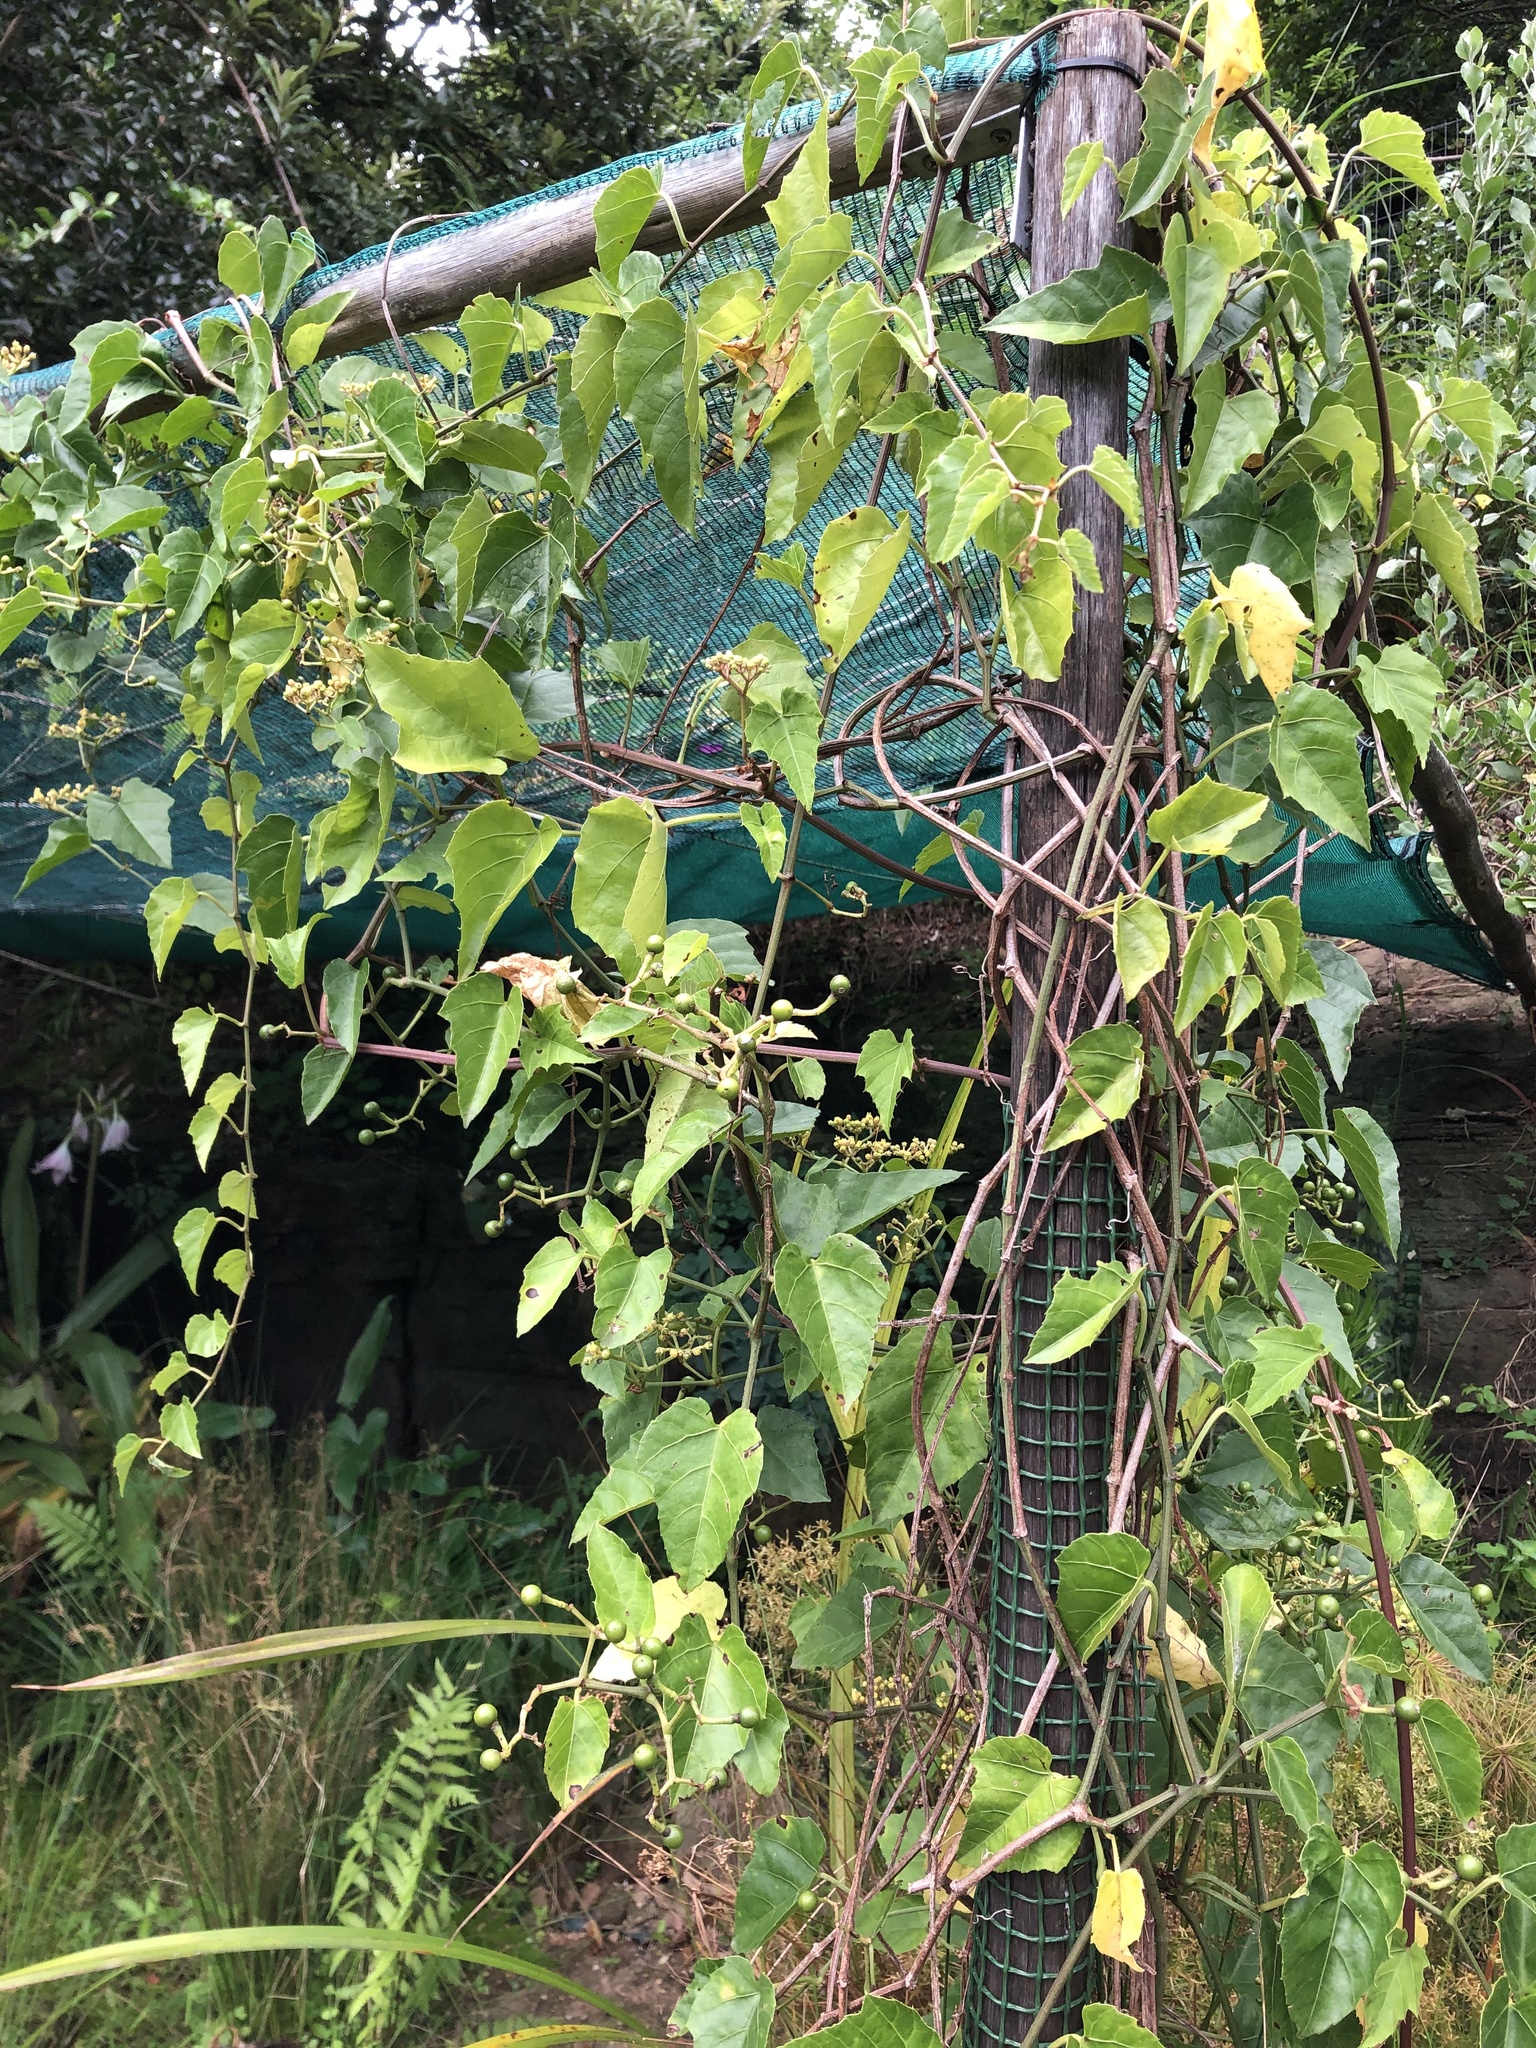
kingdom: Plantae
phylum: Tracheophyta
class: Magnoliopsida
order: Vitales
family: Vitaceae
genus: Cissus
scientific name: Cissus fragilis
